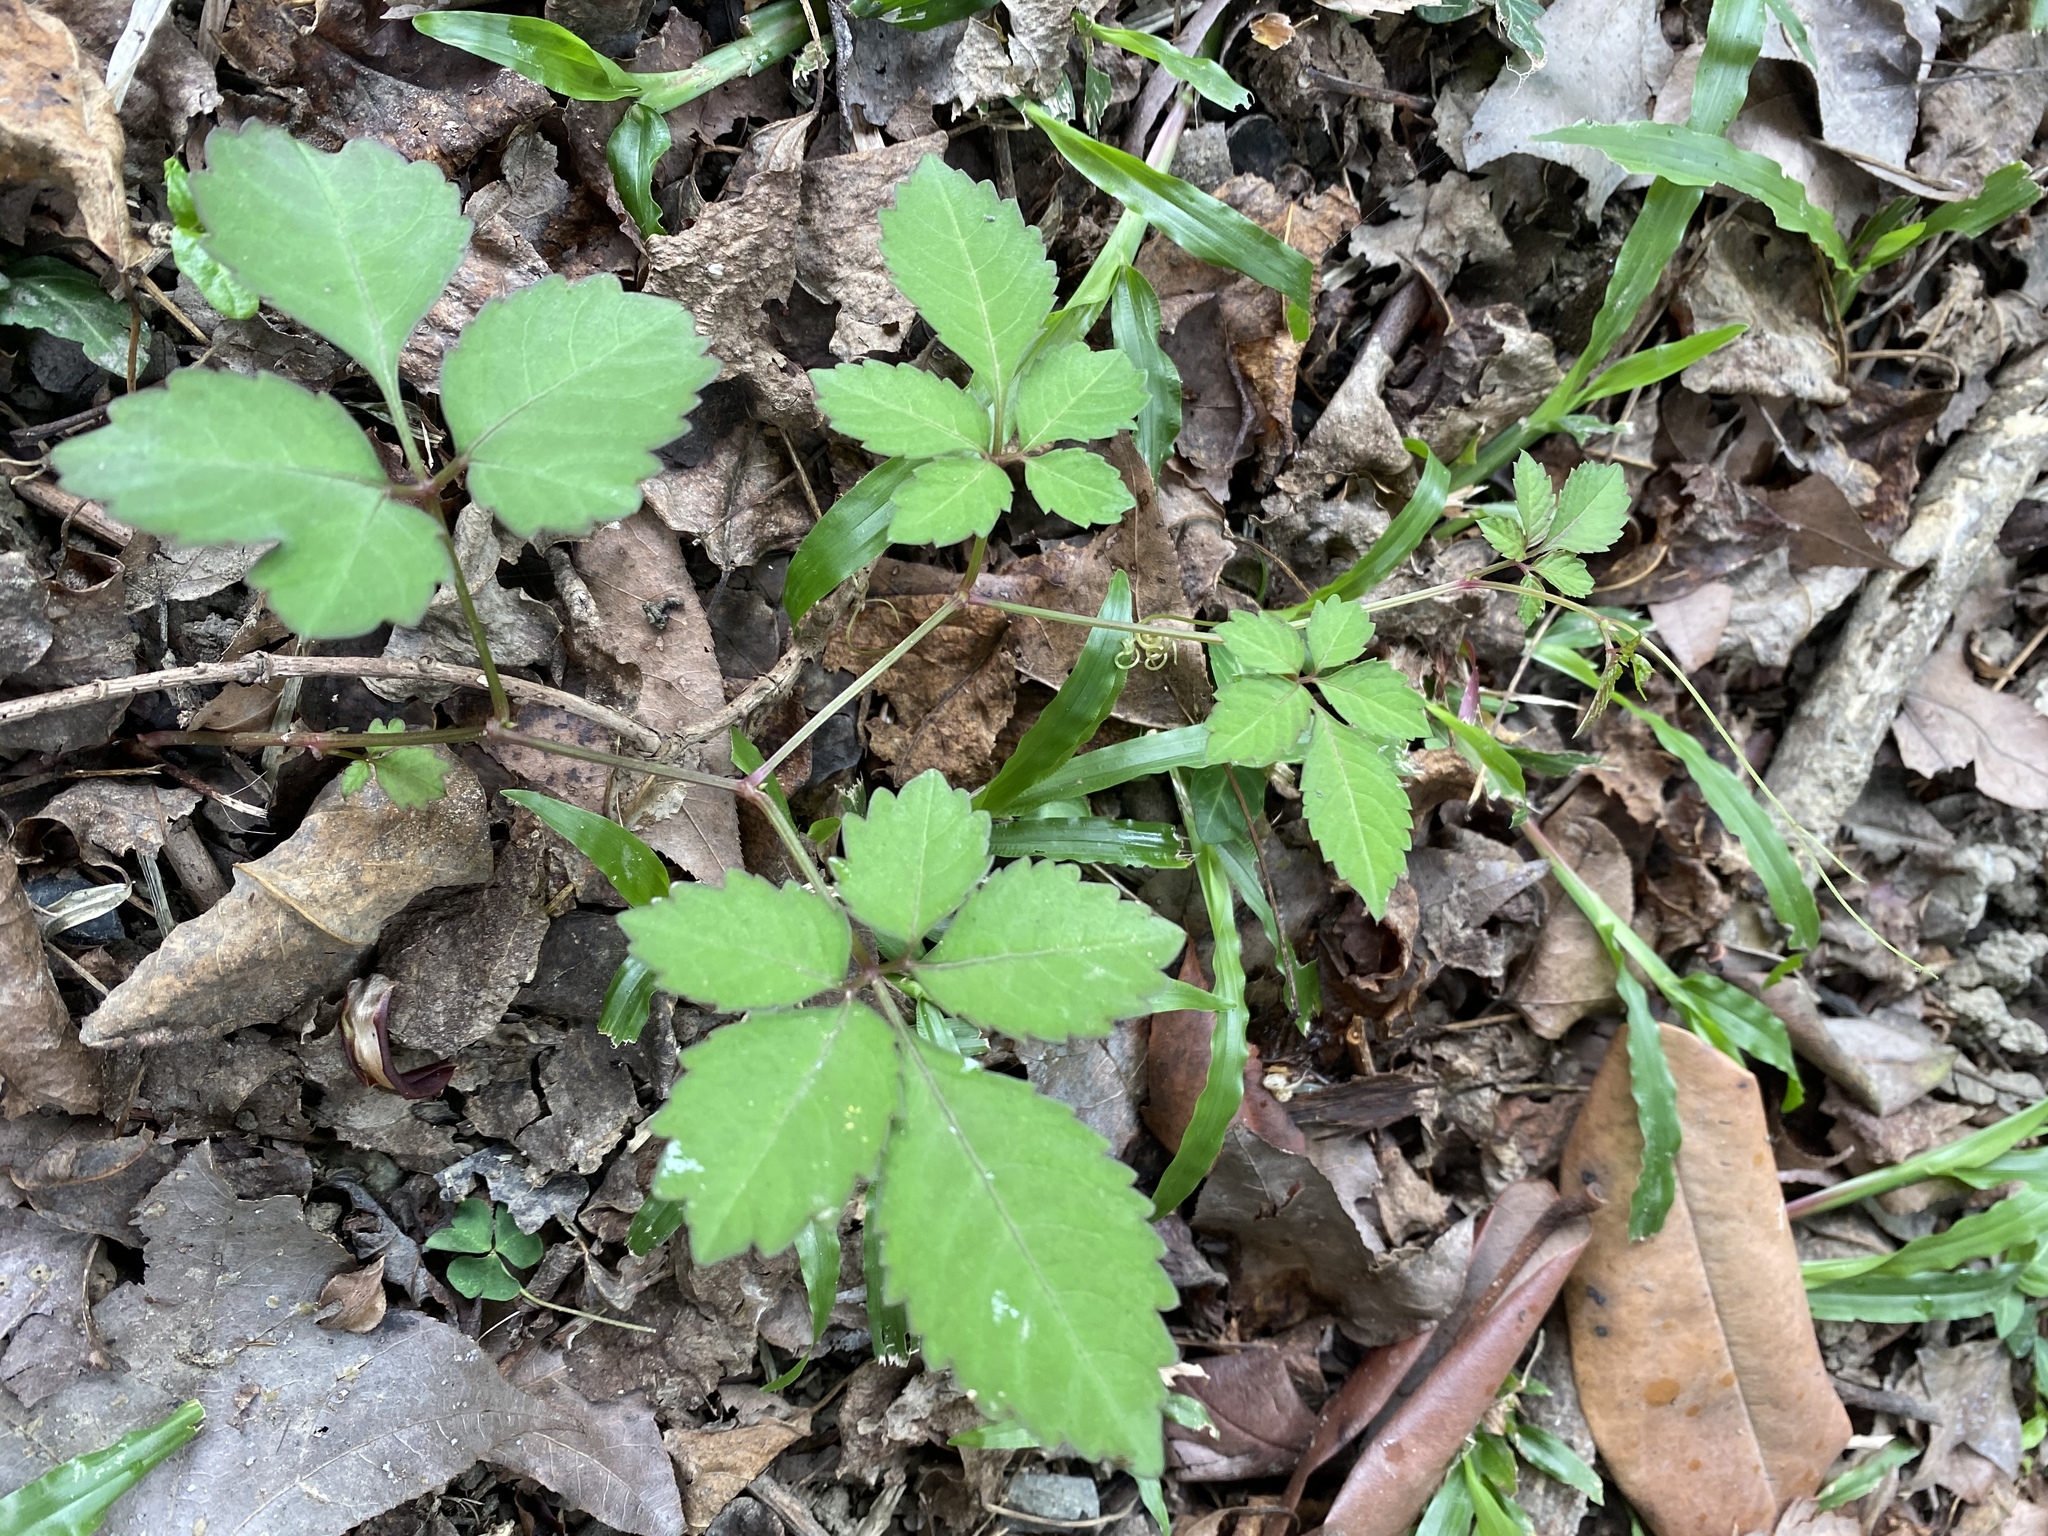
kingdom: Plantae
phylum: Tracheophyta
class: Magnoliopsida
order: Vitales
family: Vitaceae
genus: Causonis
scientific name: Causonis japonica
